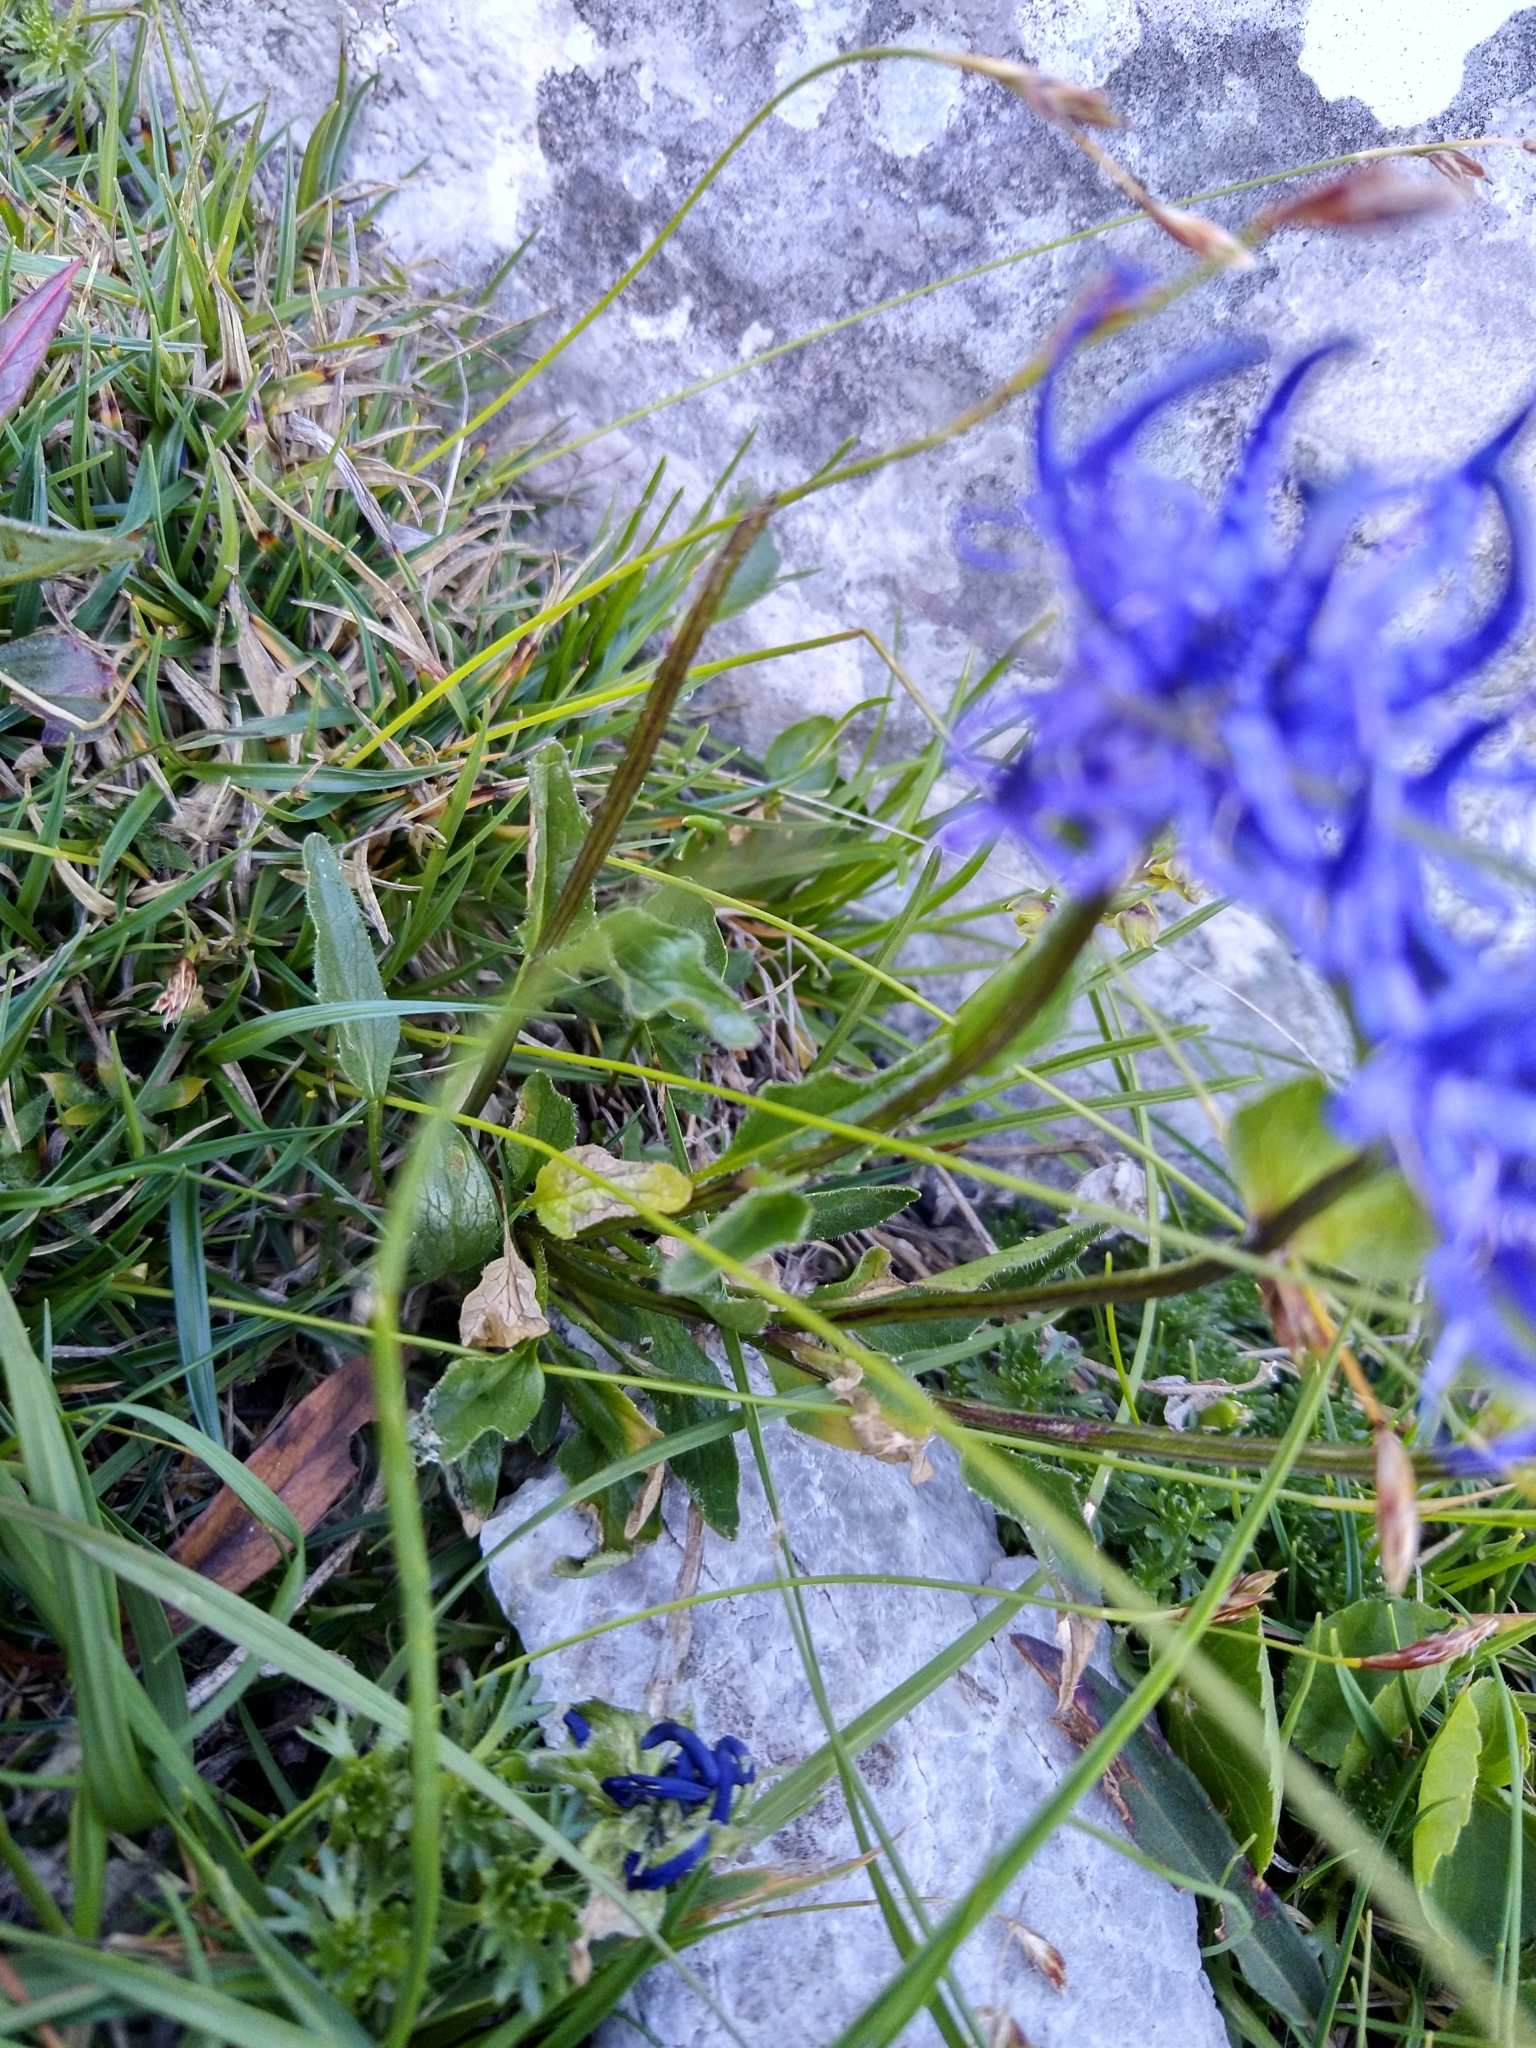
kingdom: Plantae
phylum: Tracheophyta
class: Magnoliopsida
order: Asterales
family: Campanulaceae
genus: Phyteuma
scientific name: Phyteuma orbiculare
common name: Round-headed rampion
